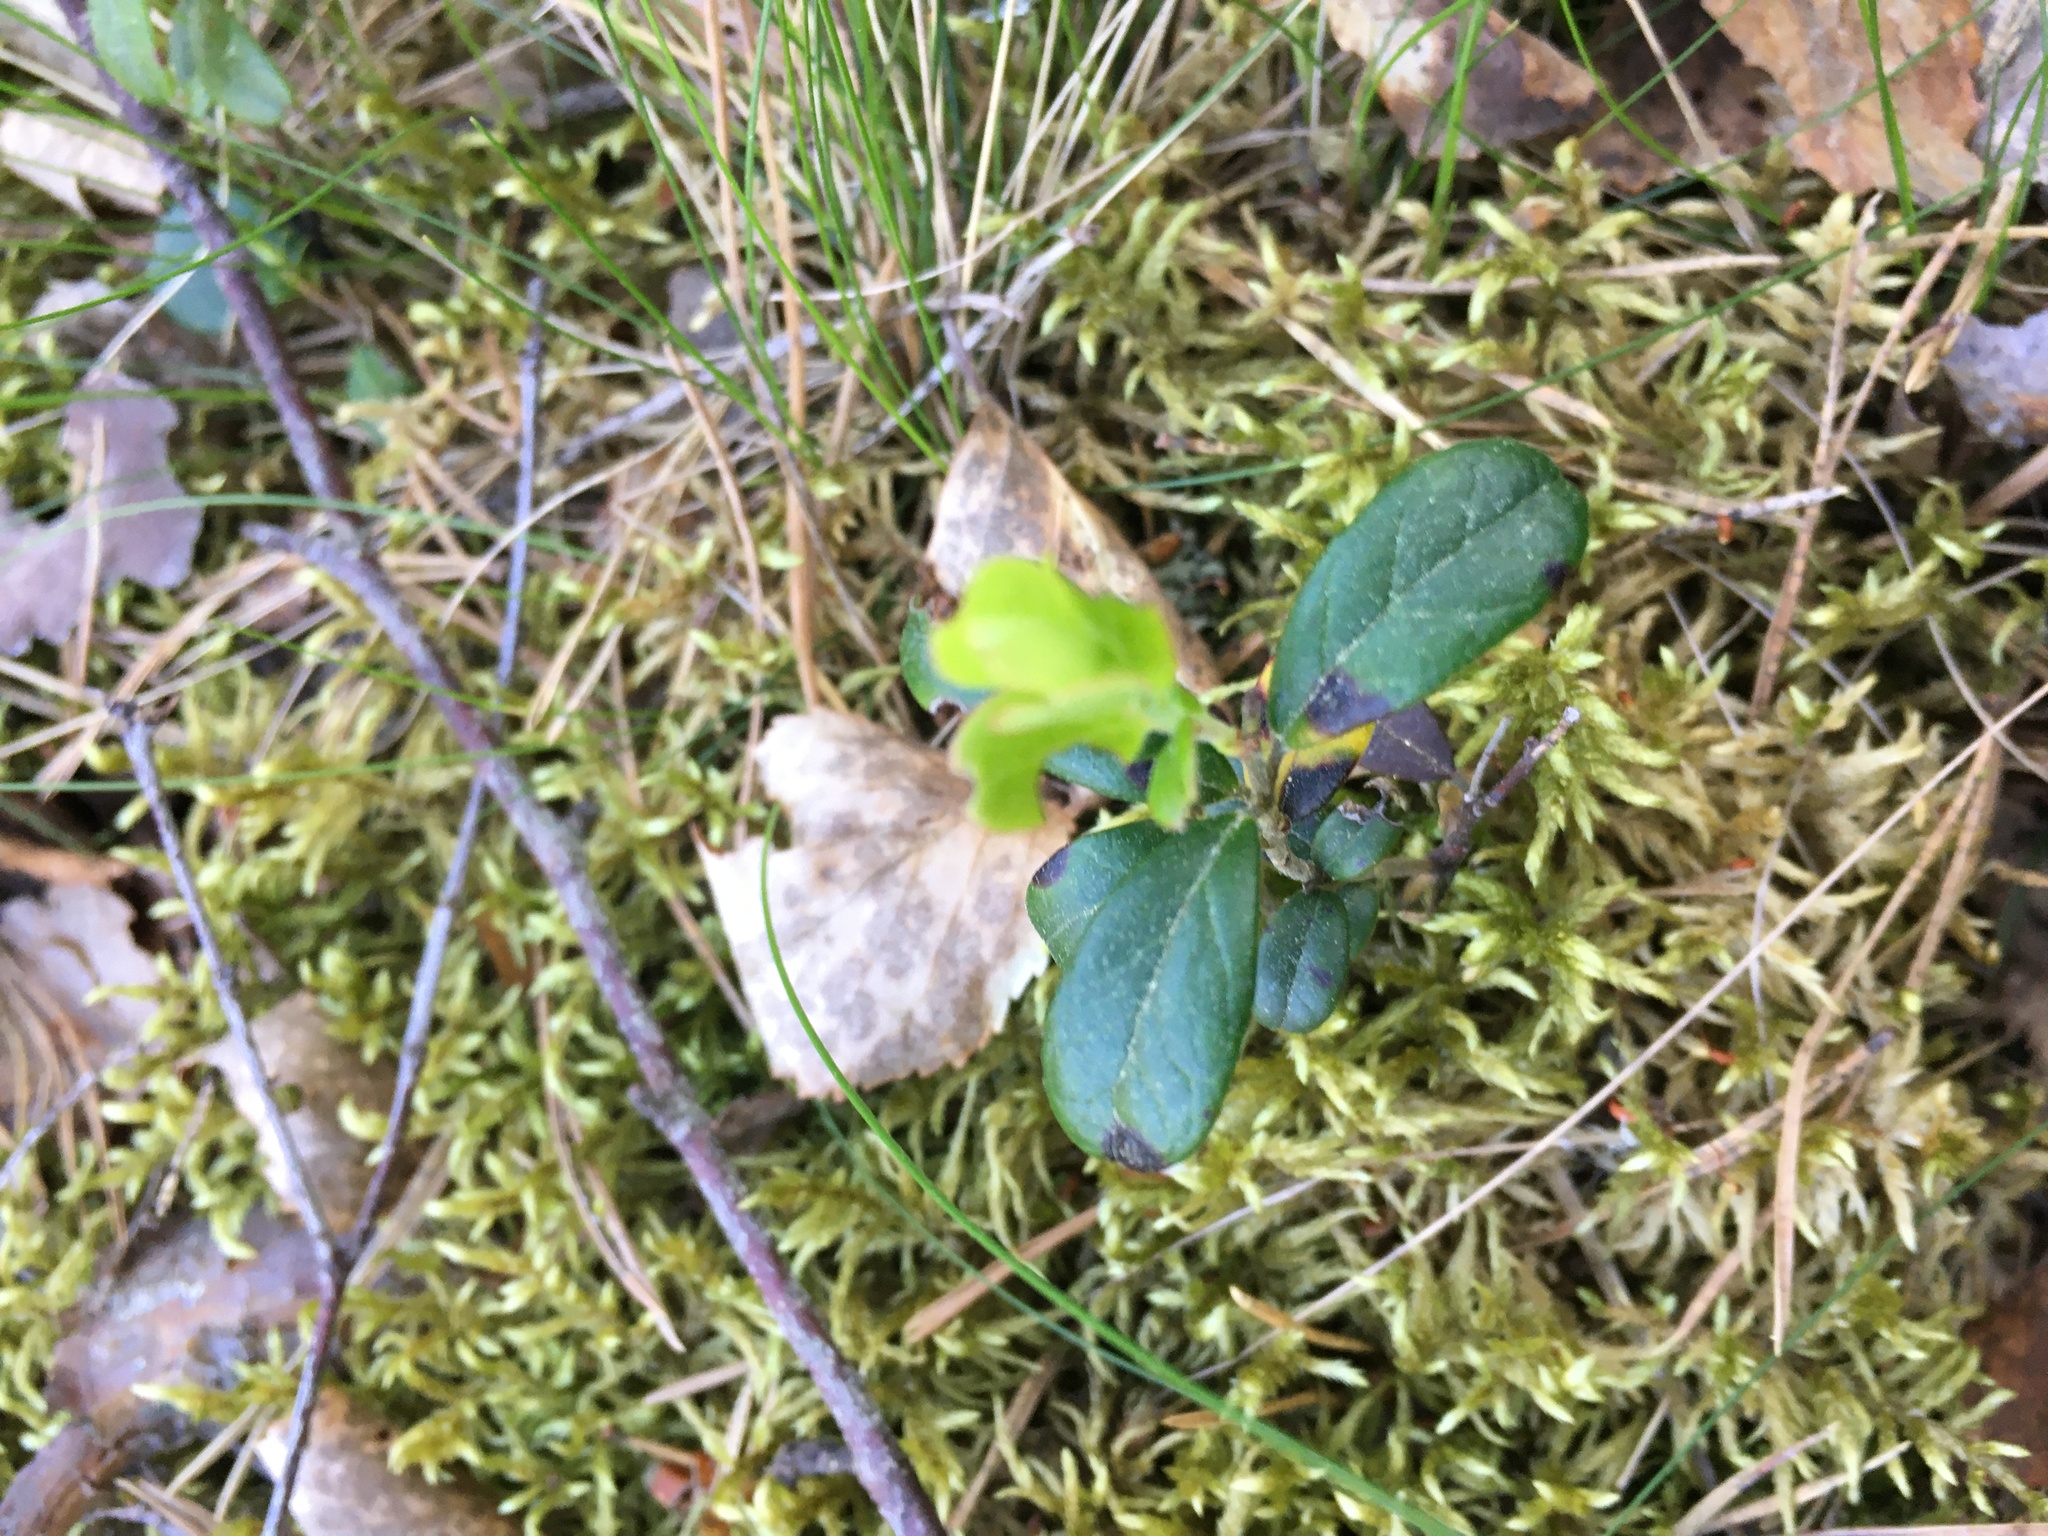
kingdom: Plantae
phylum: Tracheophyta
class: Magnoliopsida
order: Ericales
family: Ericaceae
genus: Vaccinium
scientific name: Vaccinium vitis-idaea
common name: Cowberry
